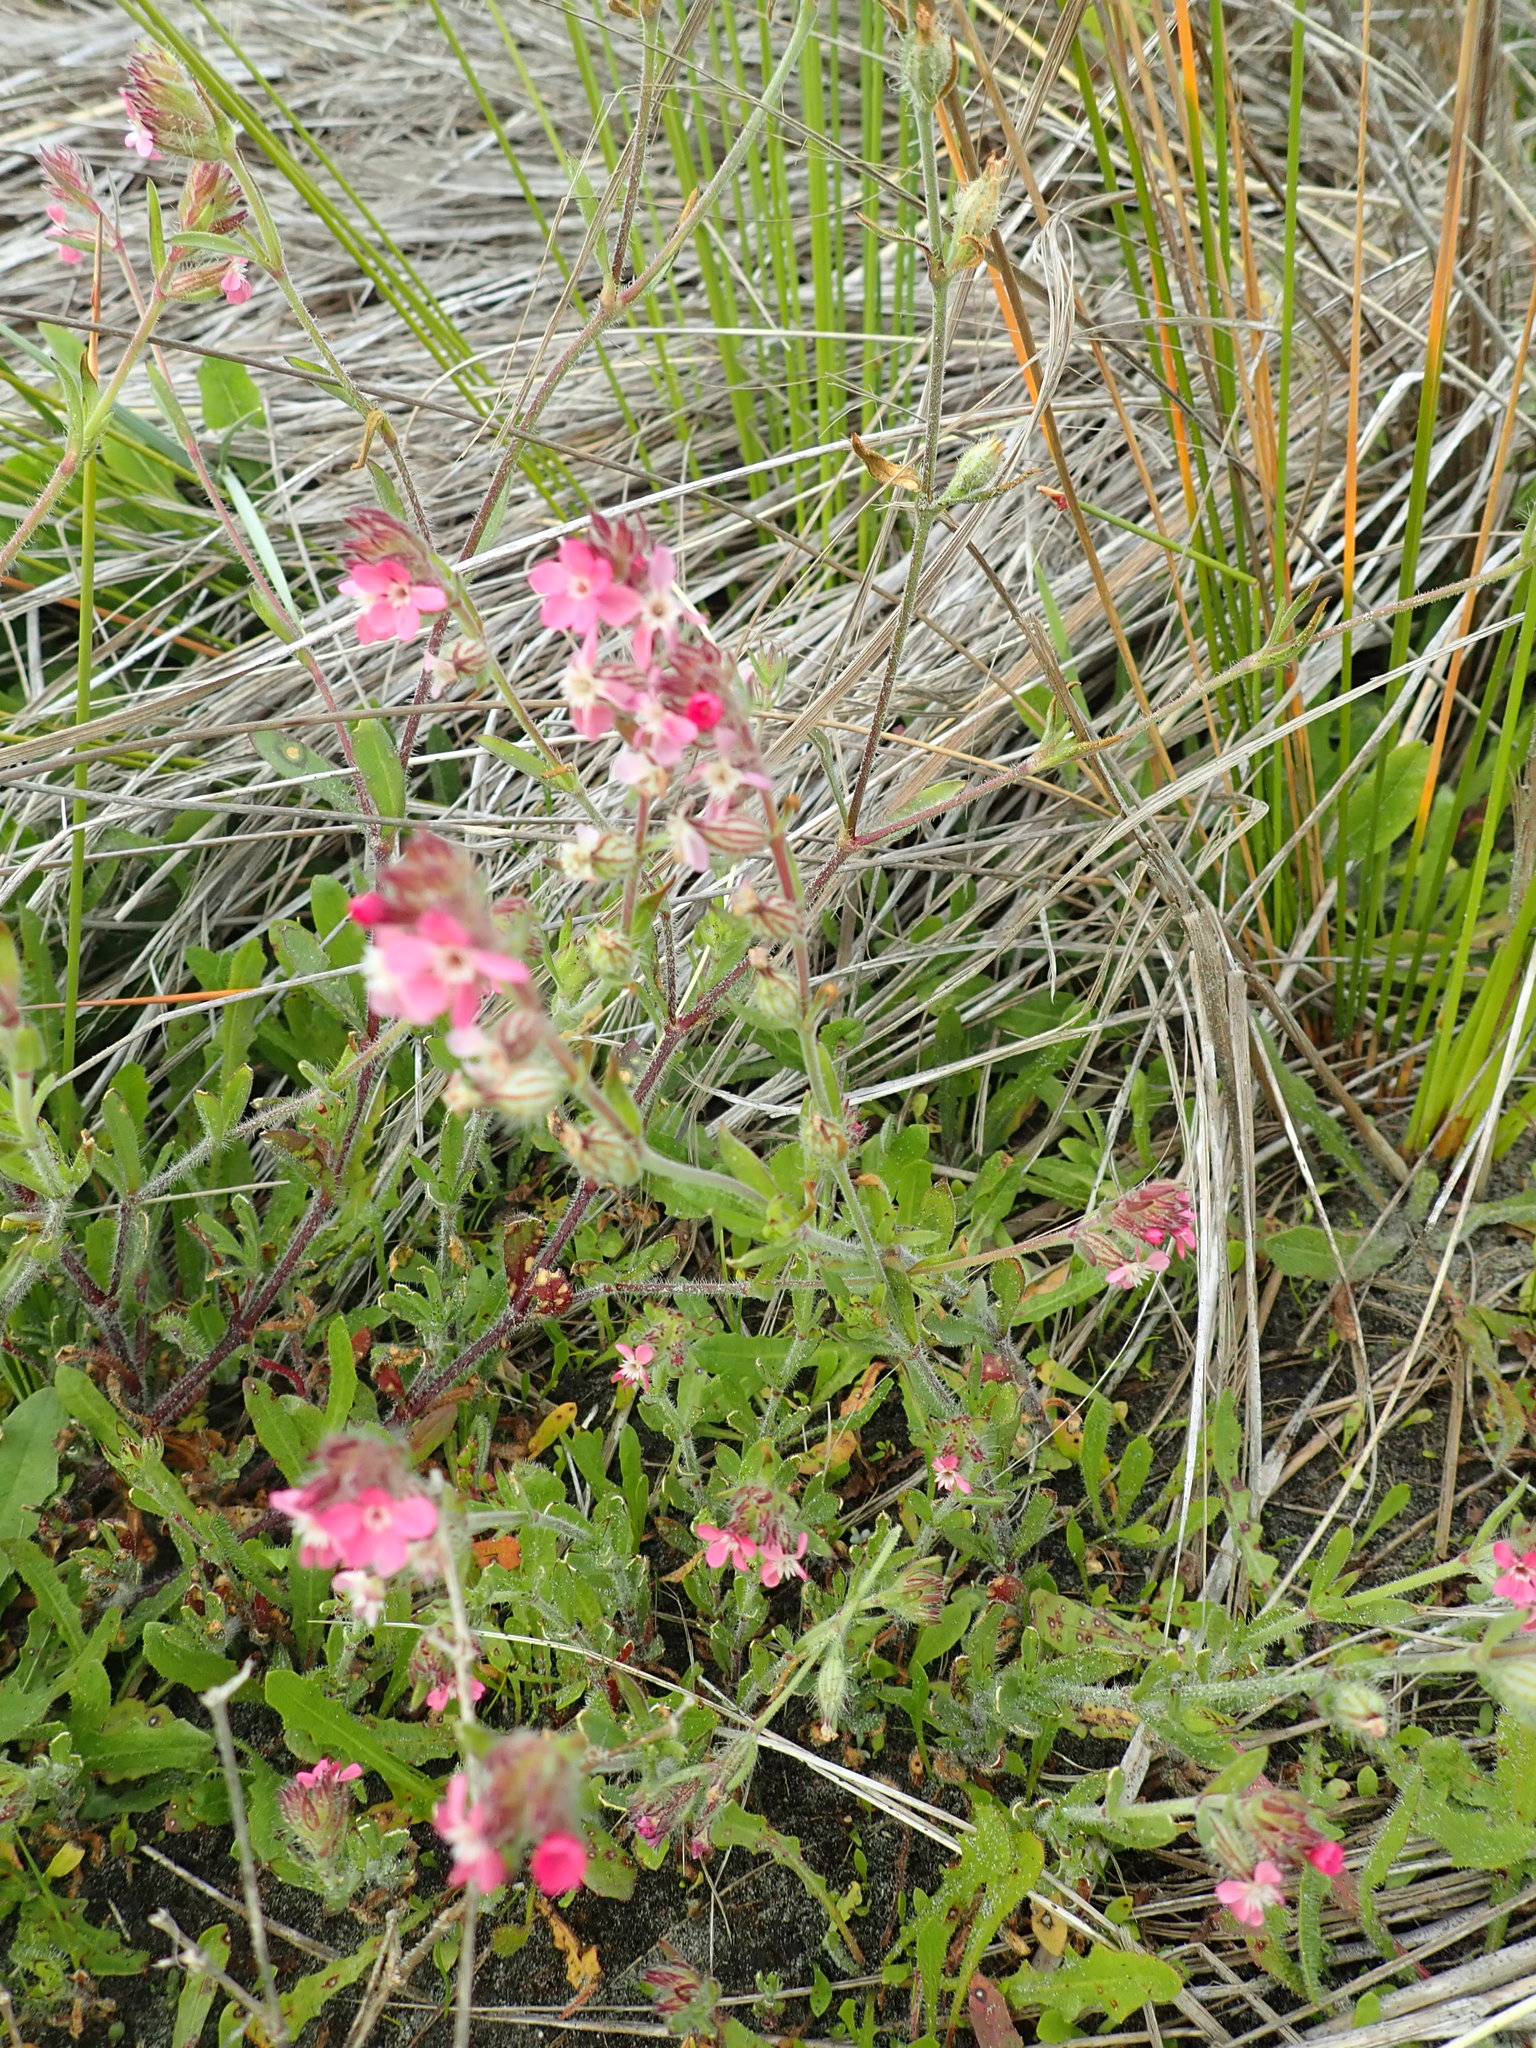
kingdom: Plantae
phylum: Tracheophyta
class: Magnoliopsida
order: Caryophyllales
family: Caryophyllaceae
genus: Silene
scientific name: Silene gallica
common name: Small-flowered catchfly
